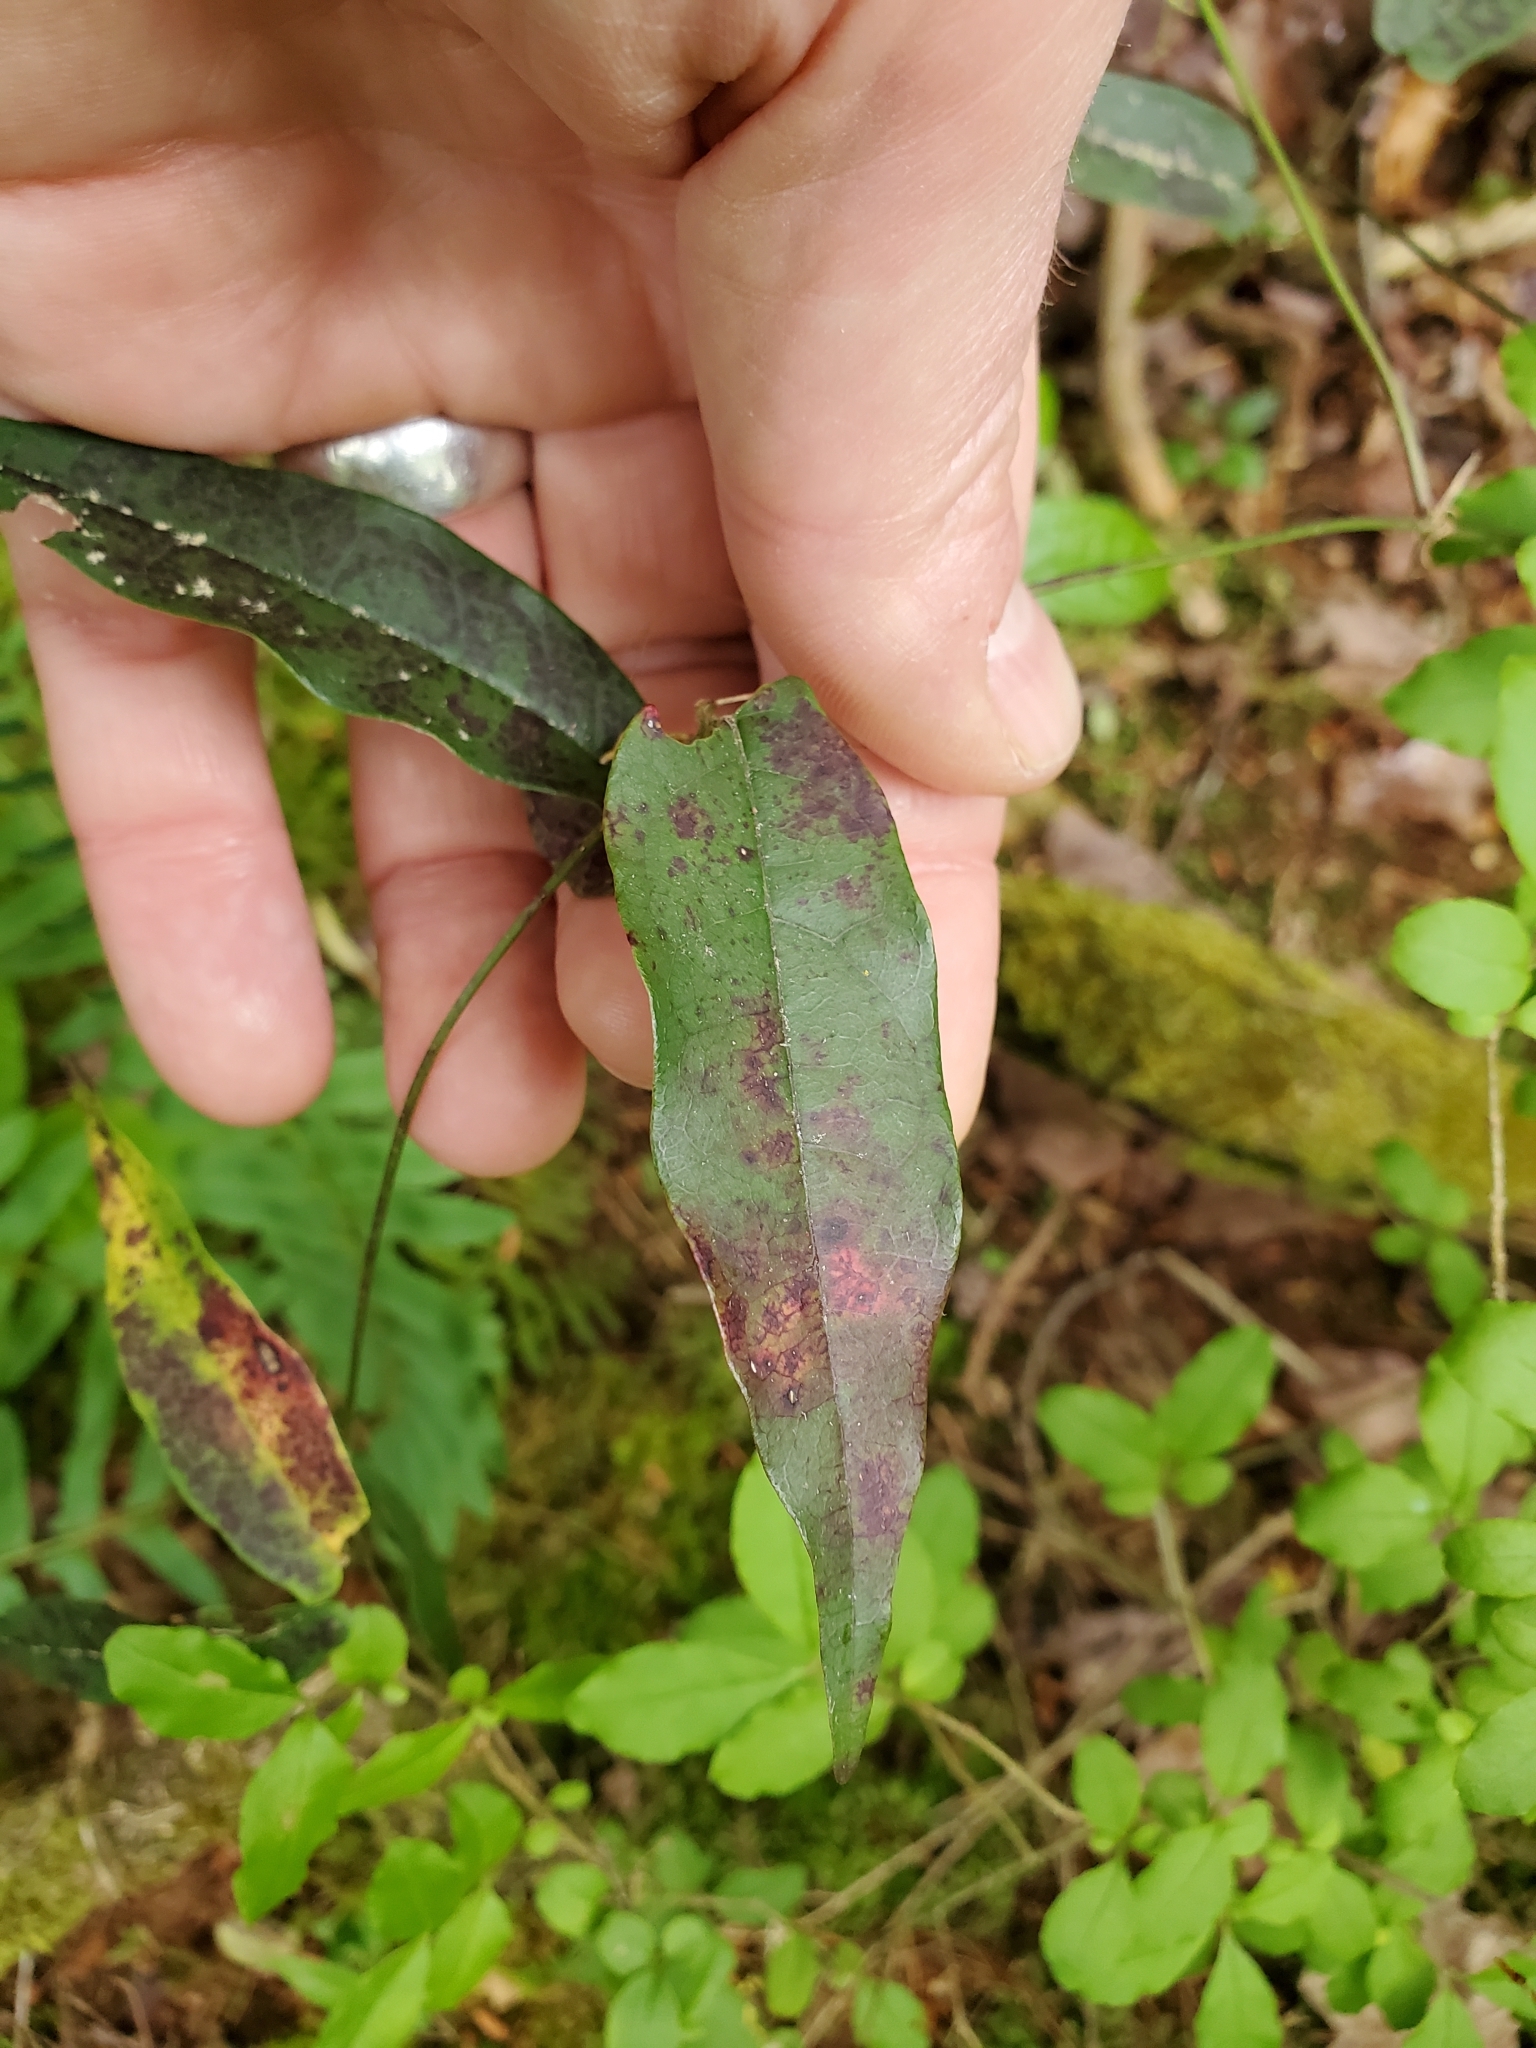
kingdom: Plantae
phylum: Tracheophyta
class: Magnoliopsida
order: Lamiales
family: Bignoniaceae
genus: Bignonia
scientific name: Bignonia capreolata
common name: Crossvine
